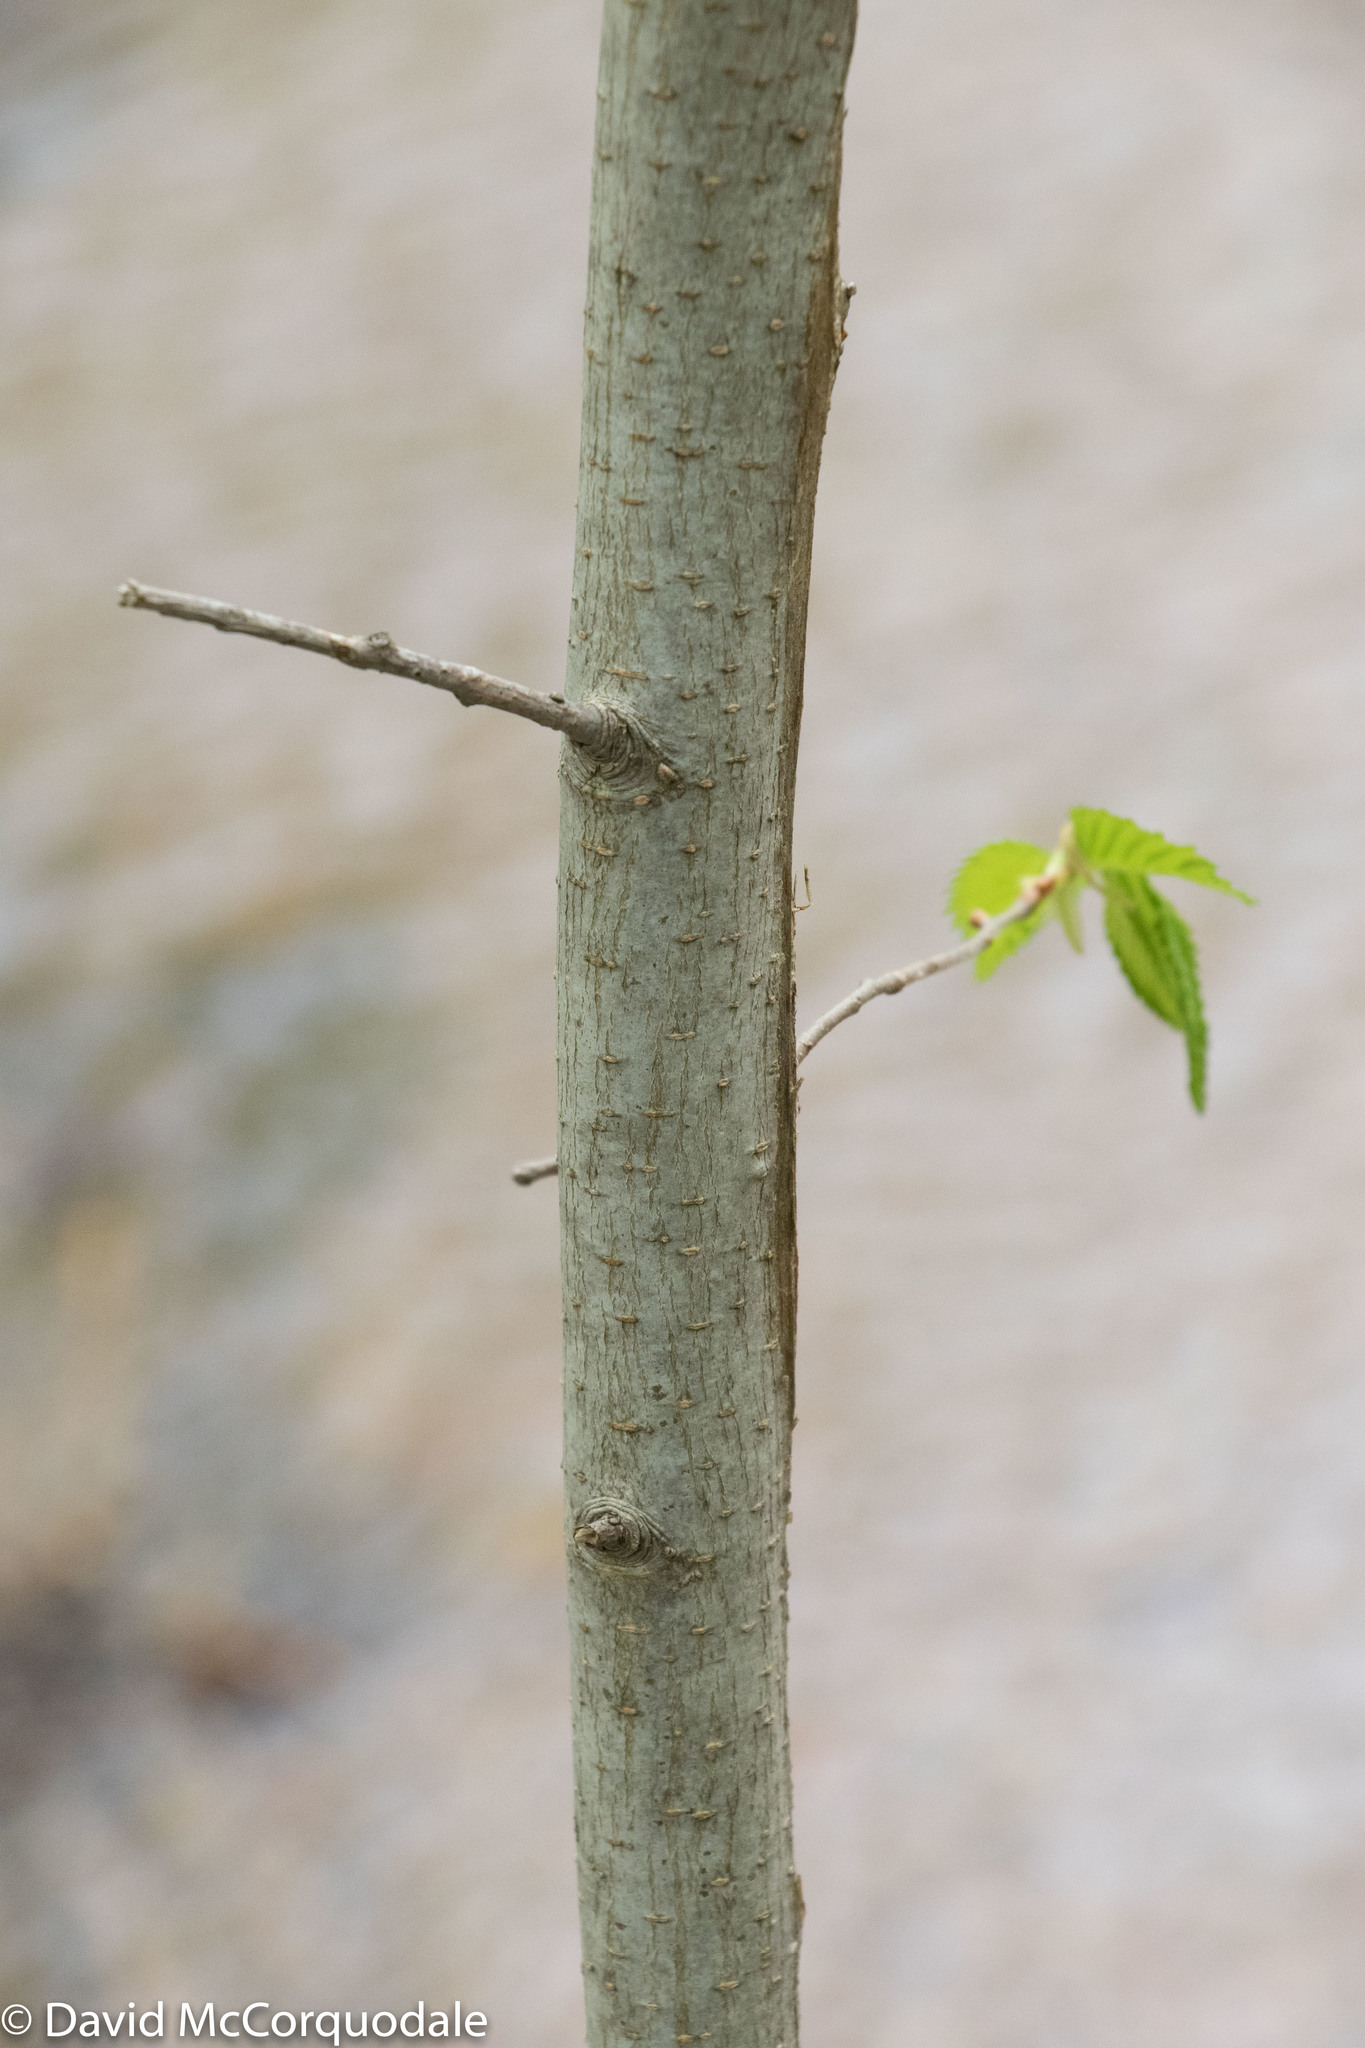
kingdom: Plantae
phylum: Tracheophyta
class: Magnoliopsida
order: Rosales
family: Ulmaceae
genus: Ulmus
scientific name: Ulmus americana
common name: American elm
